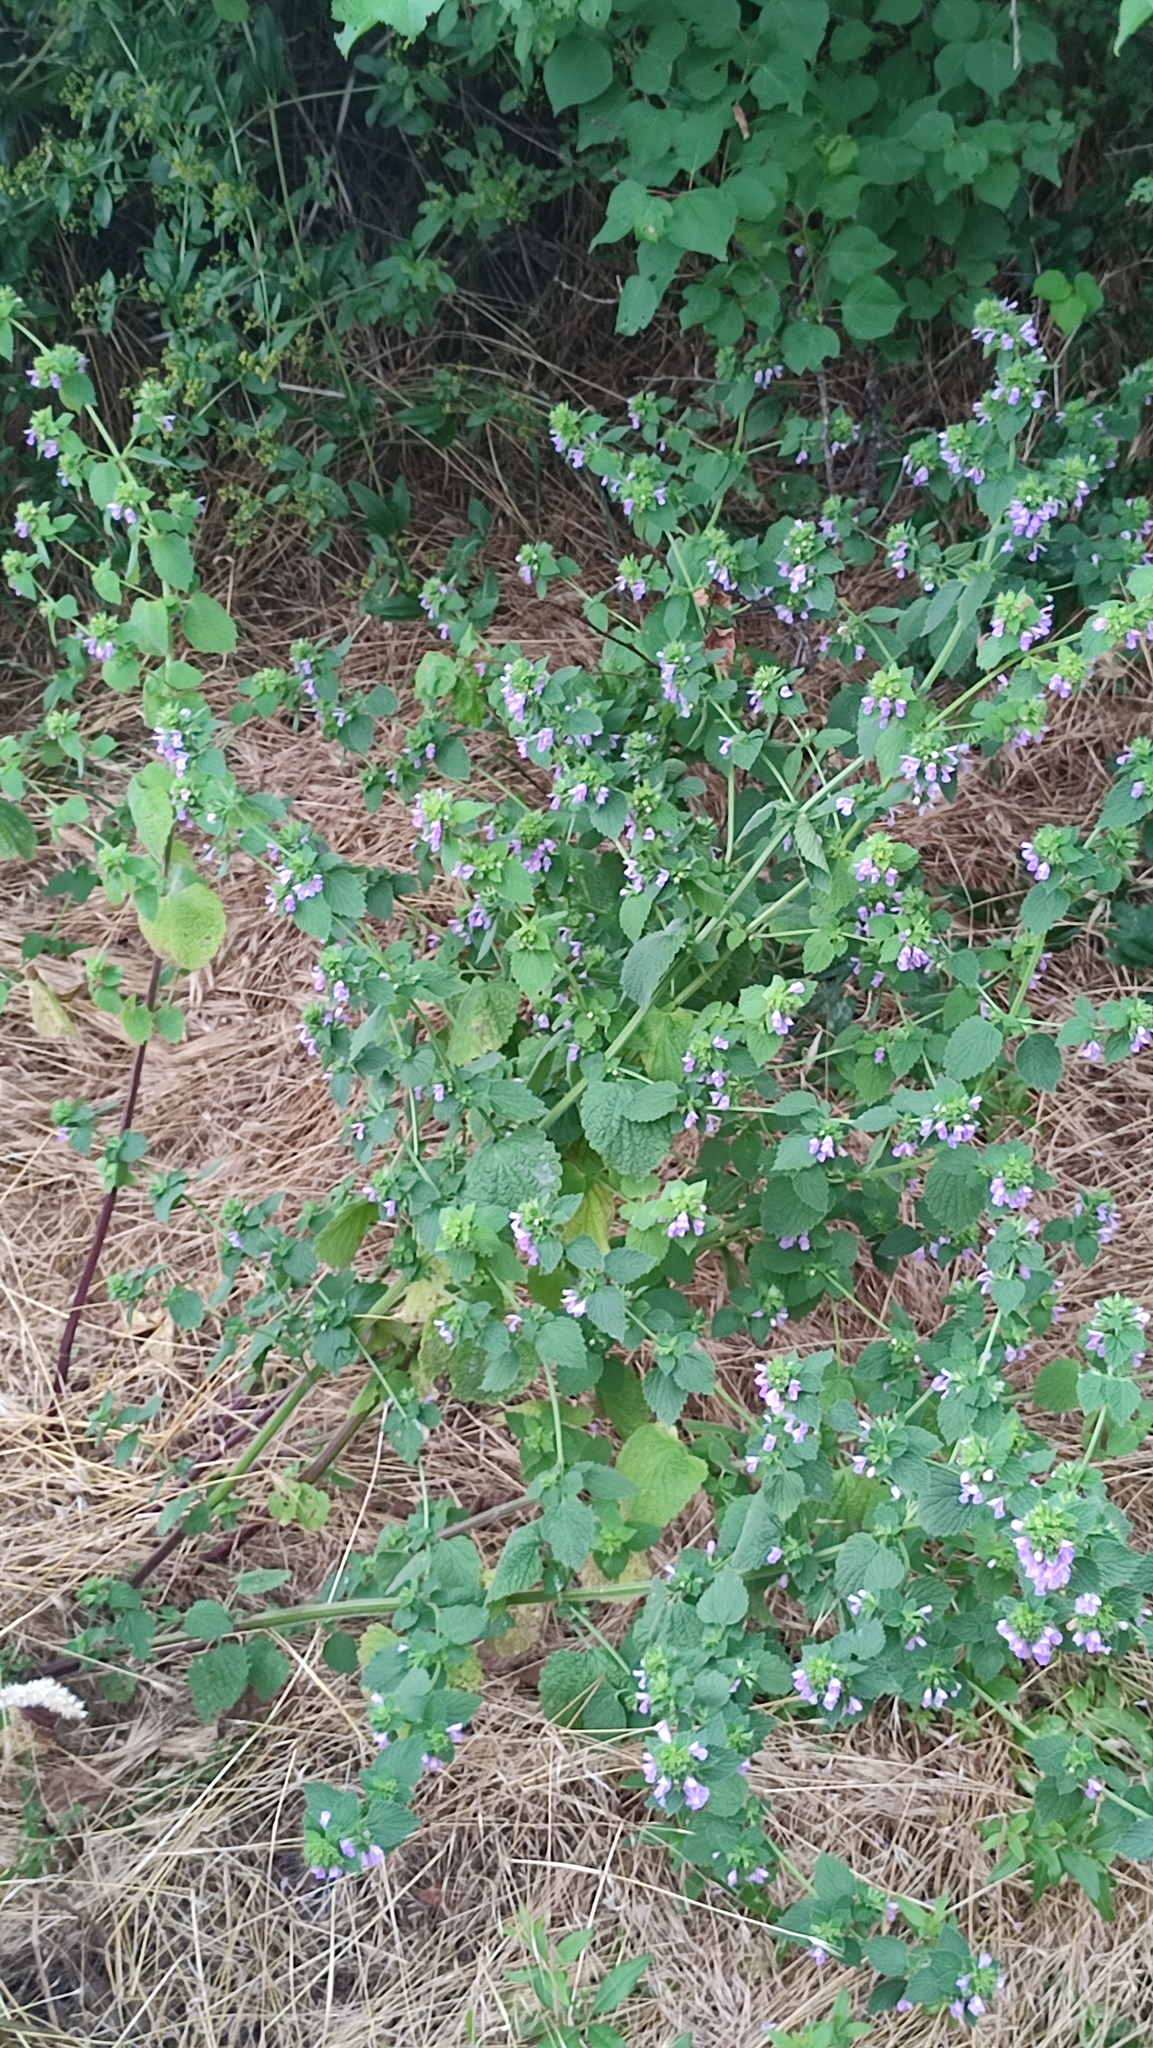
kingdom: Plantae
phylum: Tracheophyta
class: Magnoliopsida
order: Lamiales
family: Lamiaceae
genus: Ballota
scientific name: Ballota nigra
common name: Black horehound
